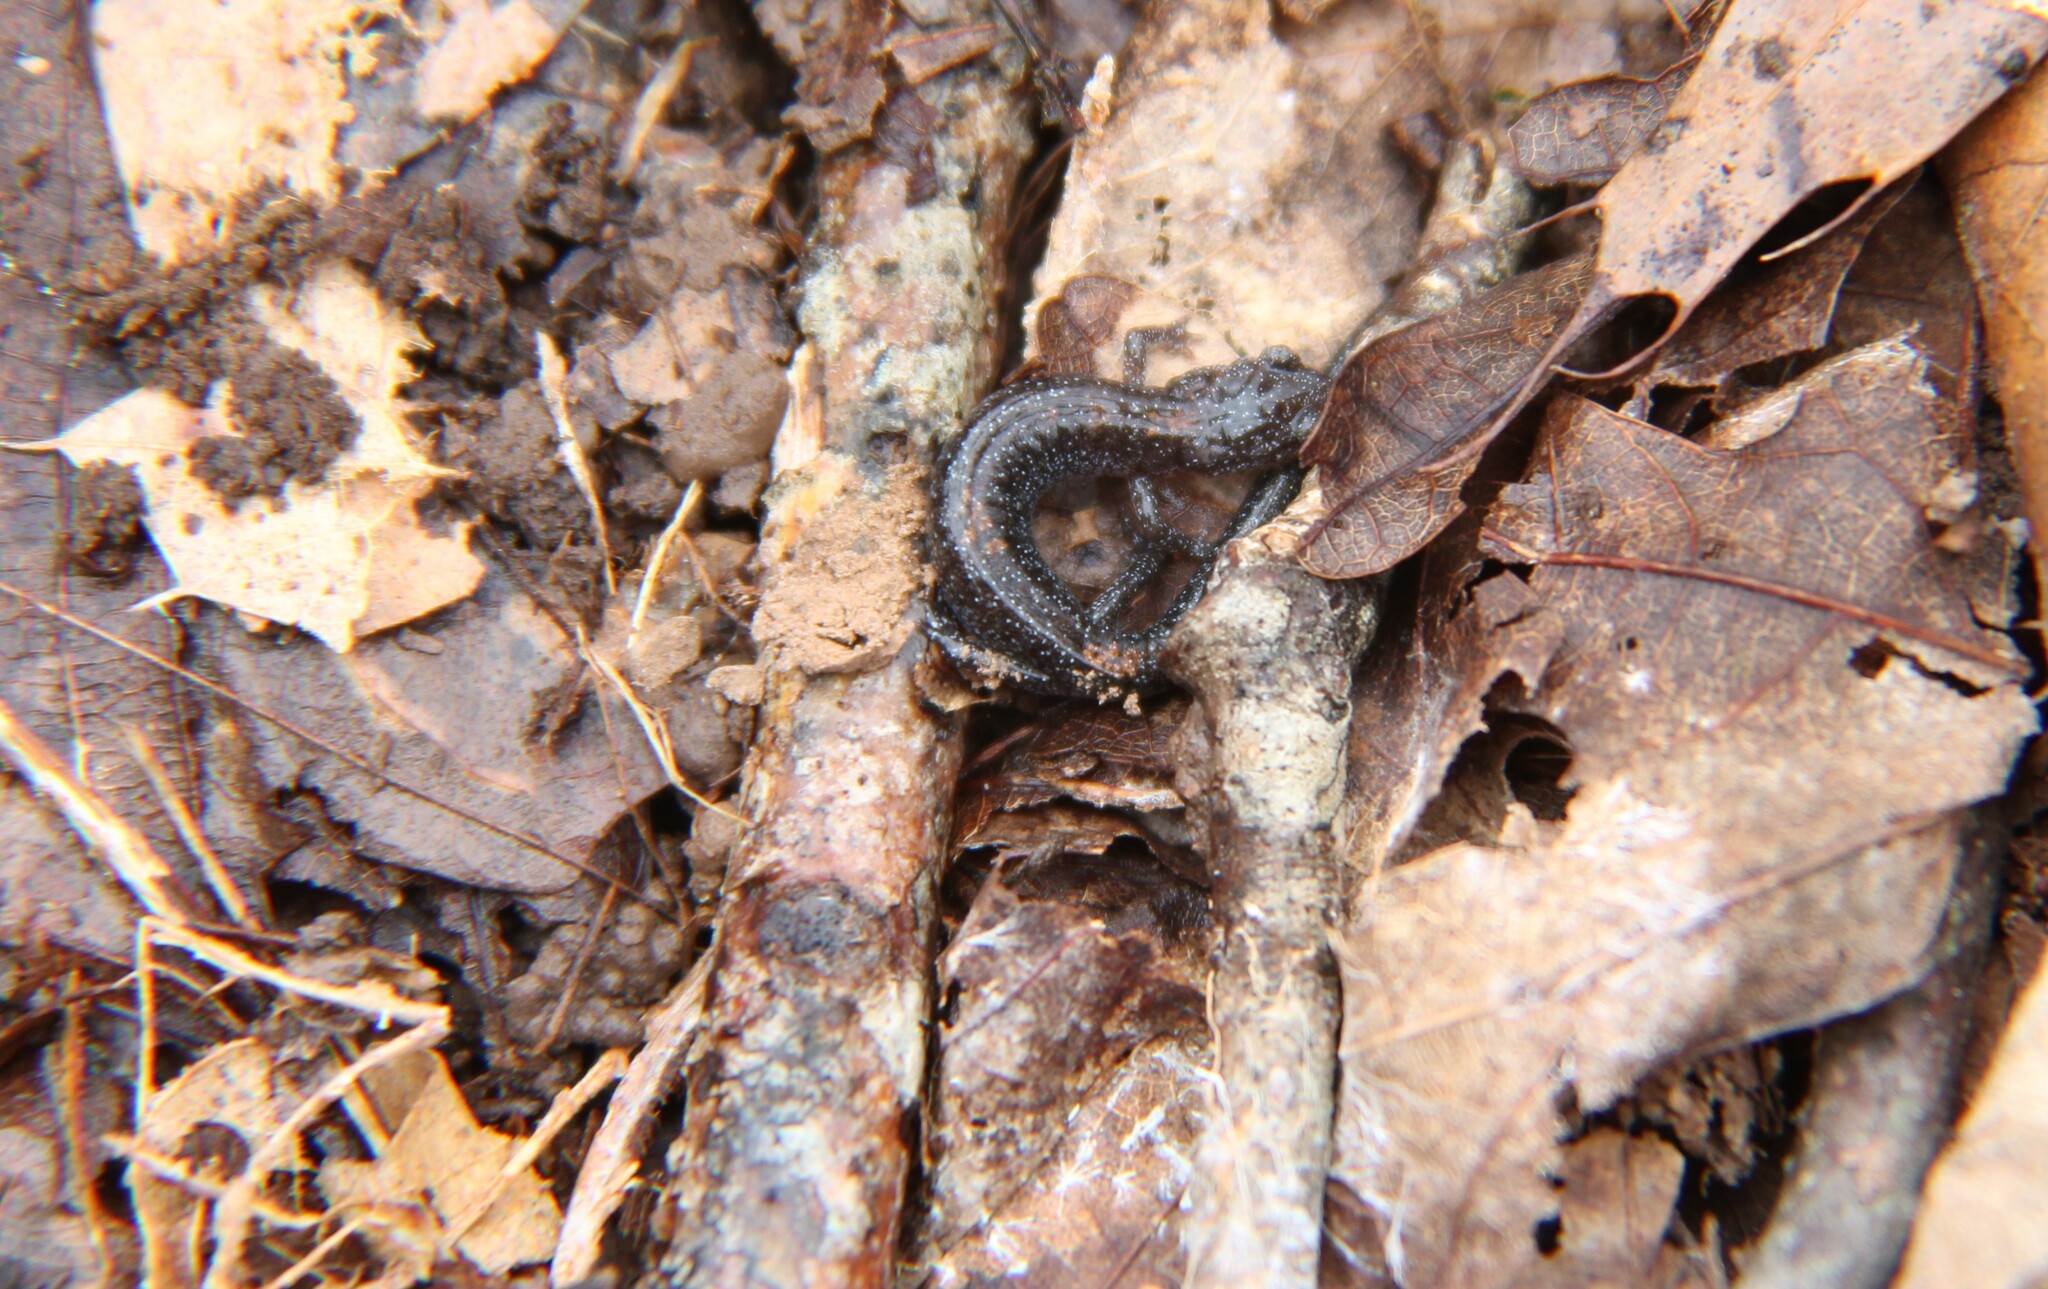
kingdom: Animalia
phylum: Chordata
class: Amphibia
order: Caudata
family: Plethodontidae
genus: Plethodon
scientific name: Plethodon dorsalis
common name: Northern zigzag salamander
